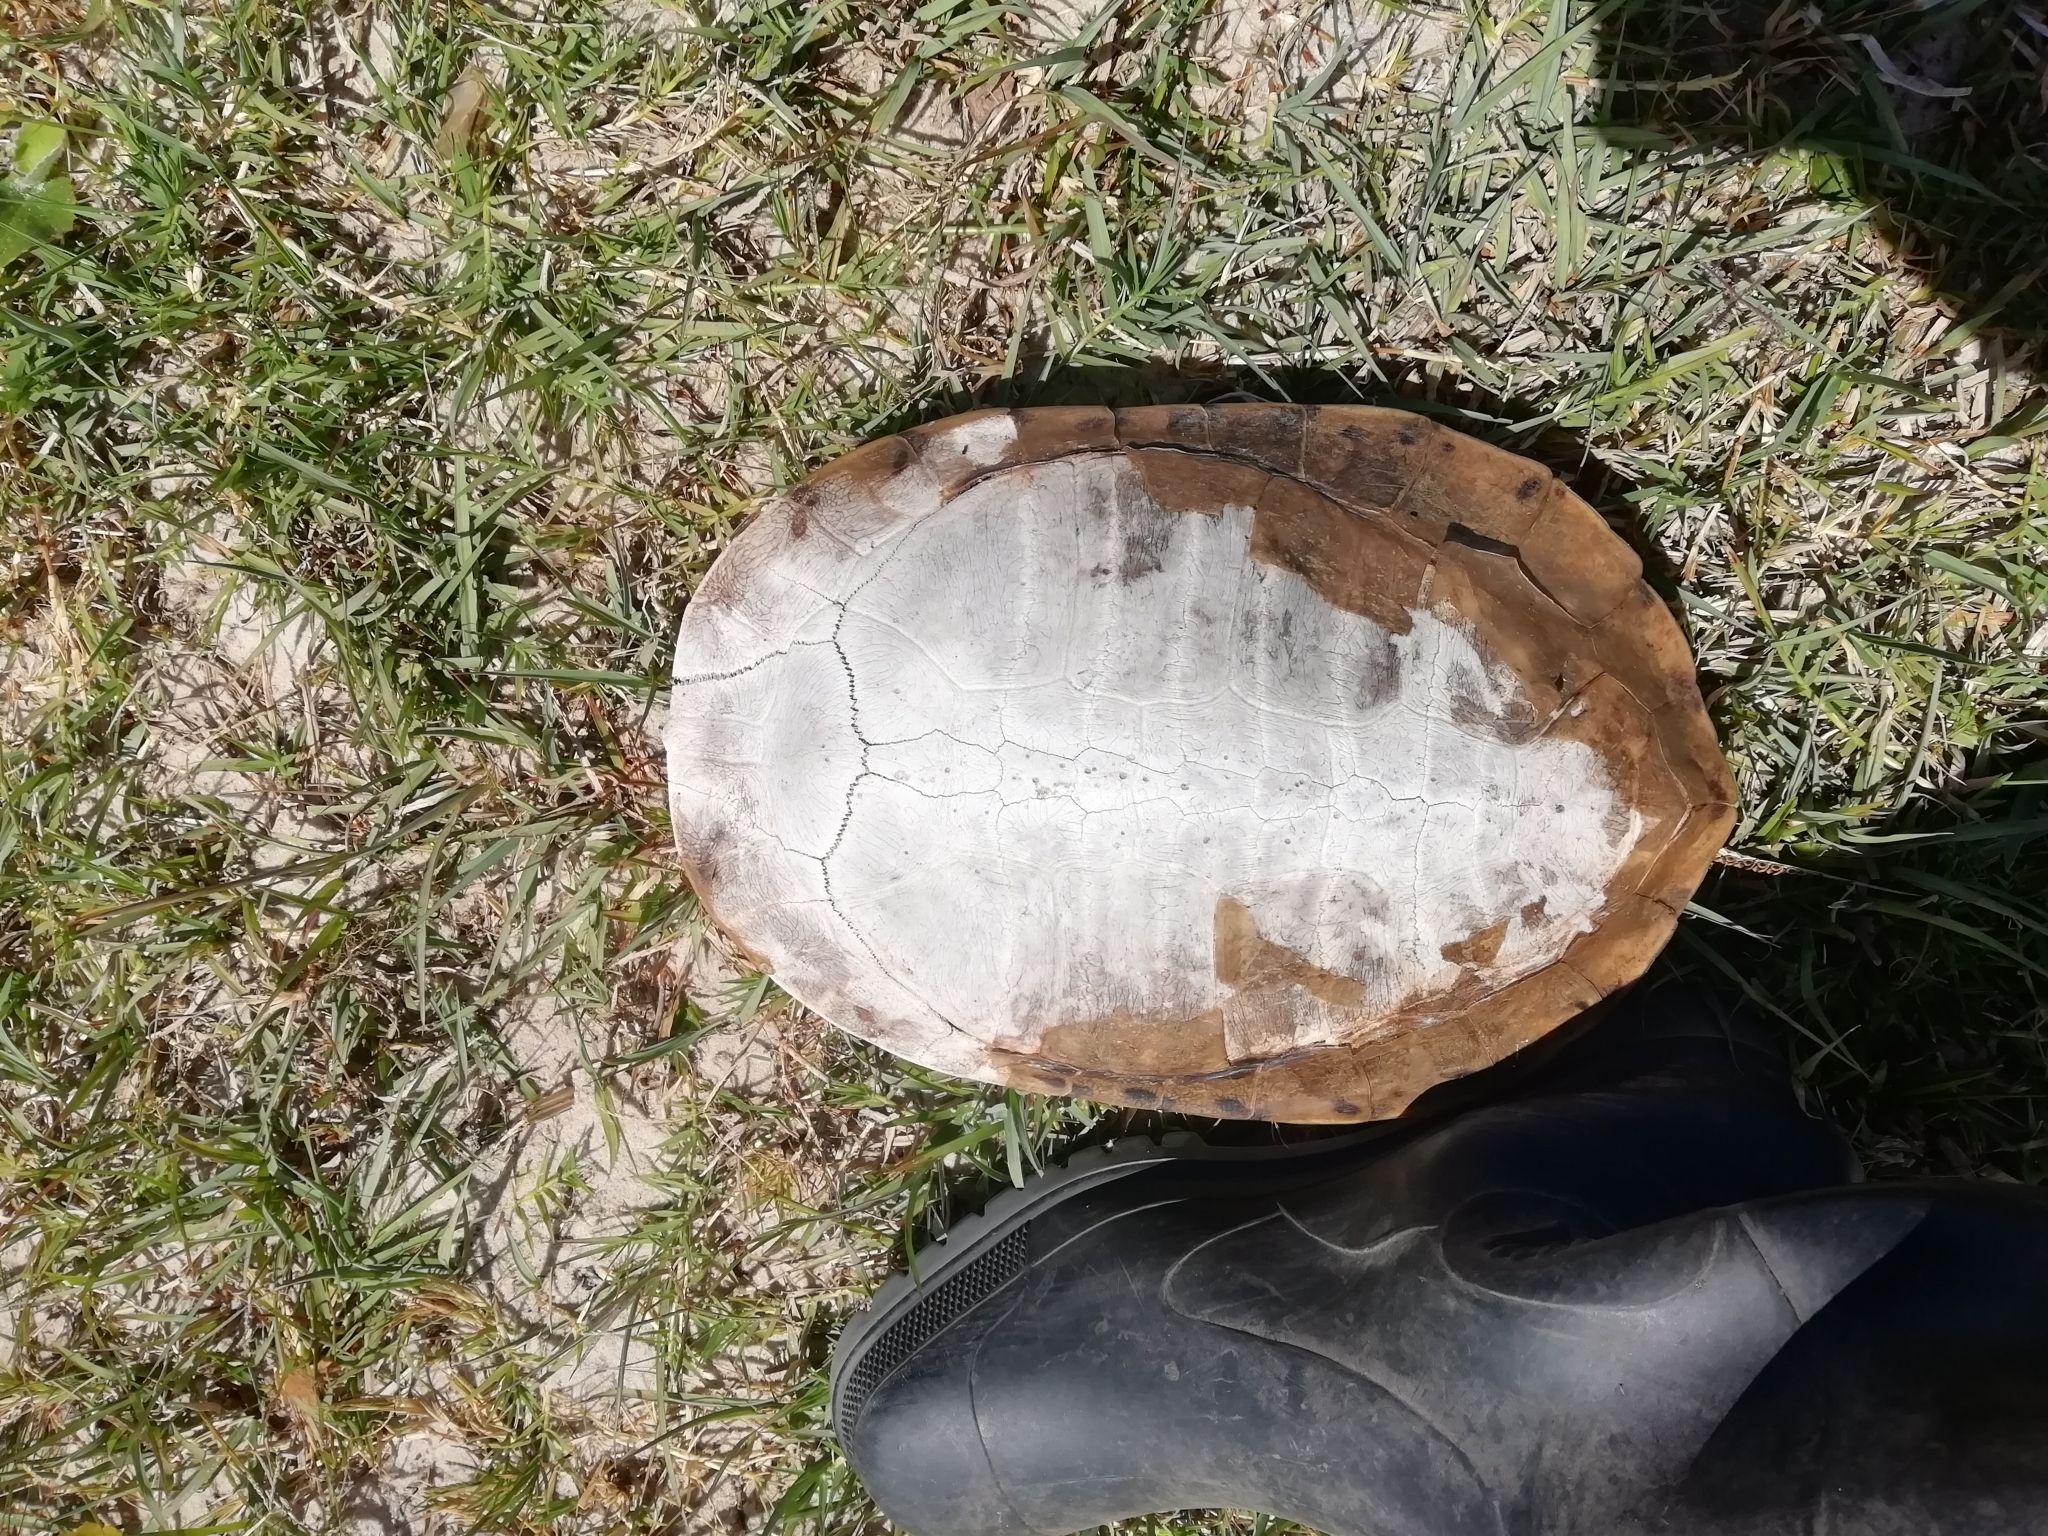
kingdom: Animalia
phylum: Chordata
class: Testudines
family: Chelidae
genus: Phrynops
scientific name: Phrynops hilarii
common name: Side-necked turtle of saint hillaire
